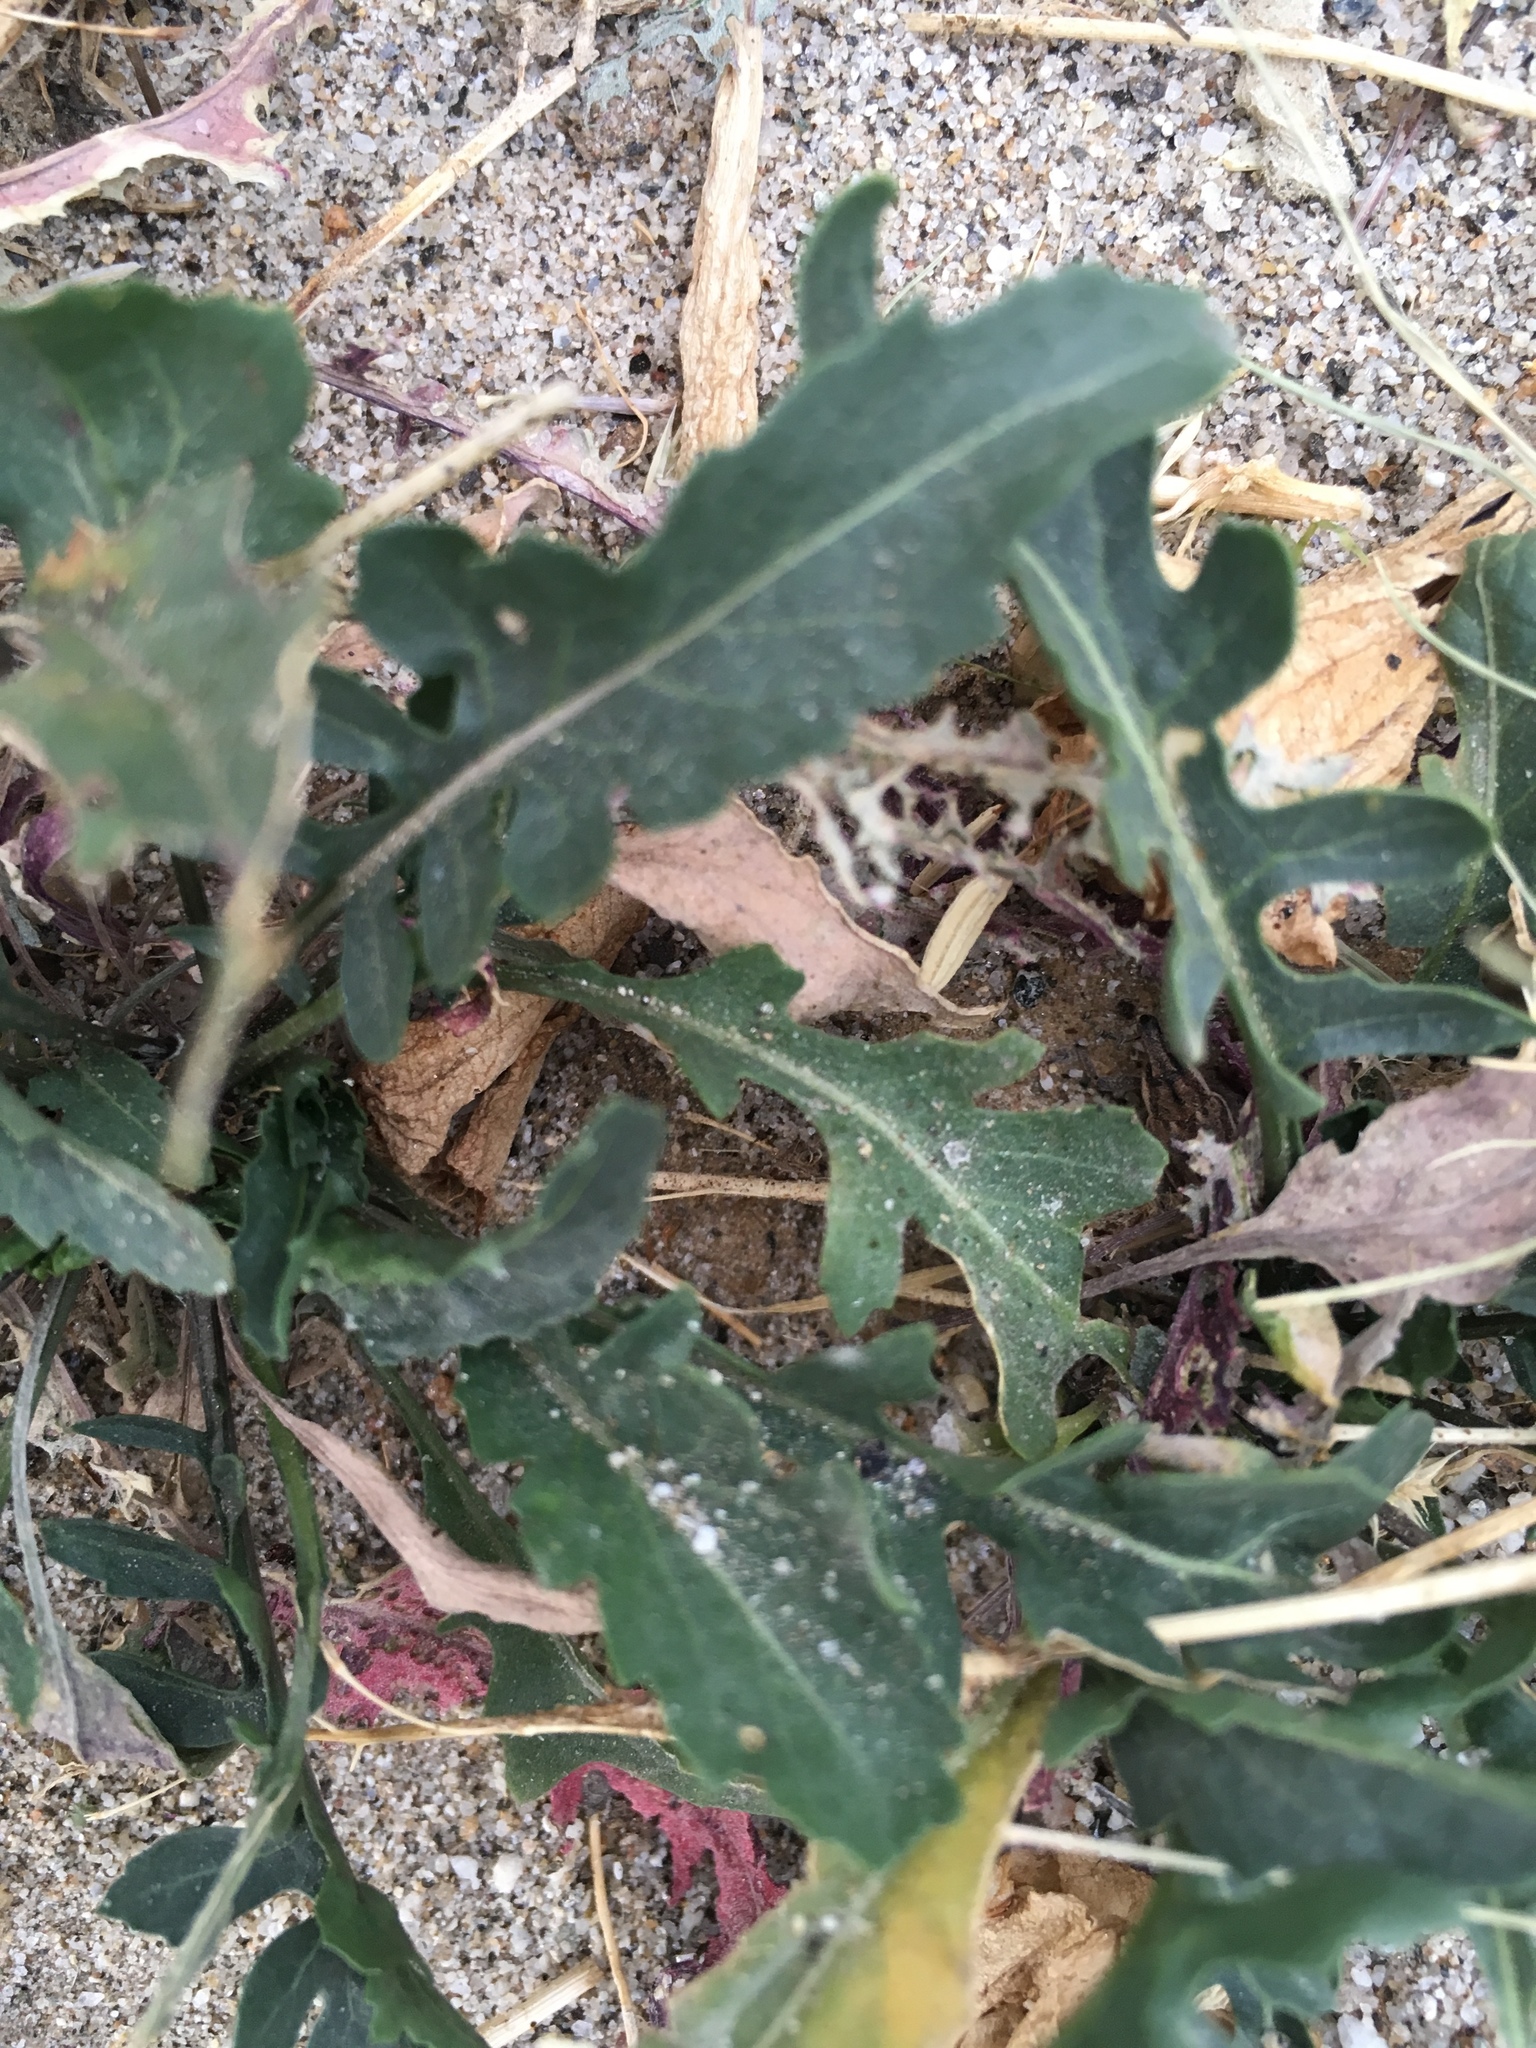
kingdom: Plantae
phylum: Tracheophyta
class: Magnoliopsida
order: Myrtales
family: Onagraceae
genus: Eulobus
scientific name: Eulobus californicus
